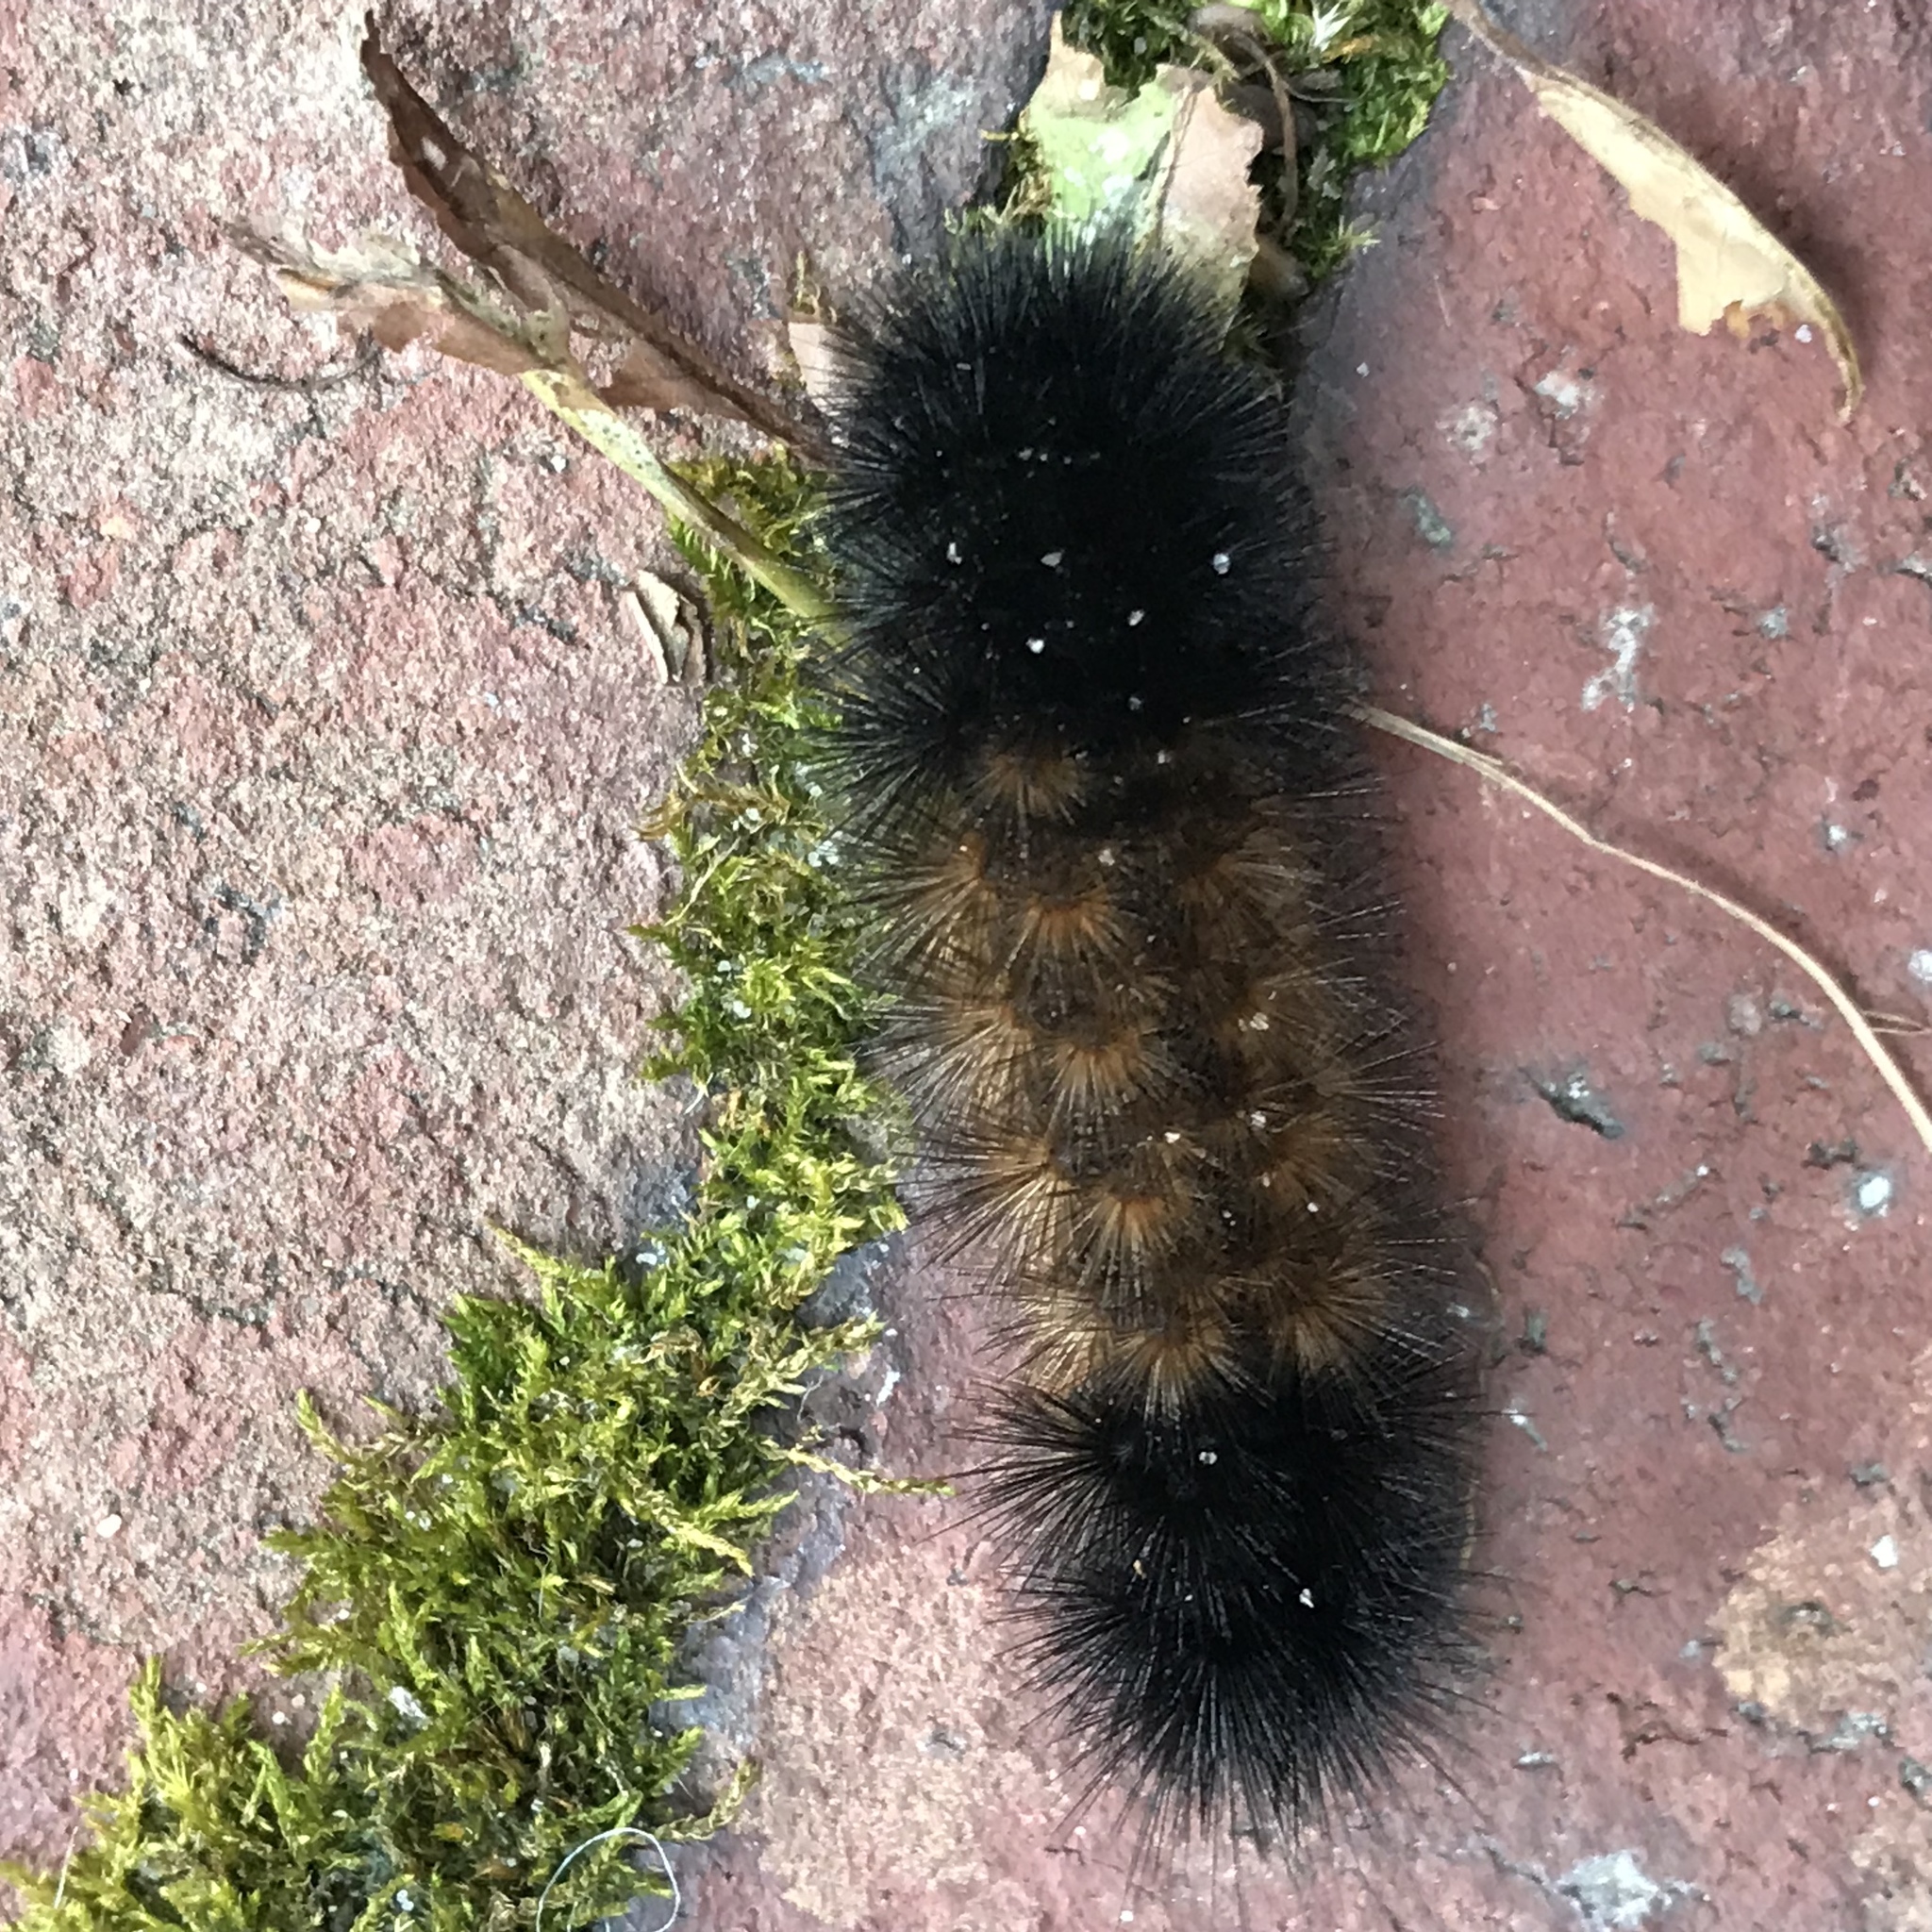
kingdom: Animalia
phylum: Arthropoda
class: Insecta
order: Lepidoptera
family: Erebidae
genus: Pyrrharctia
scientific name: Pyrrharctia isabella
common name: Isabella tiger moth
